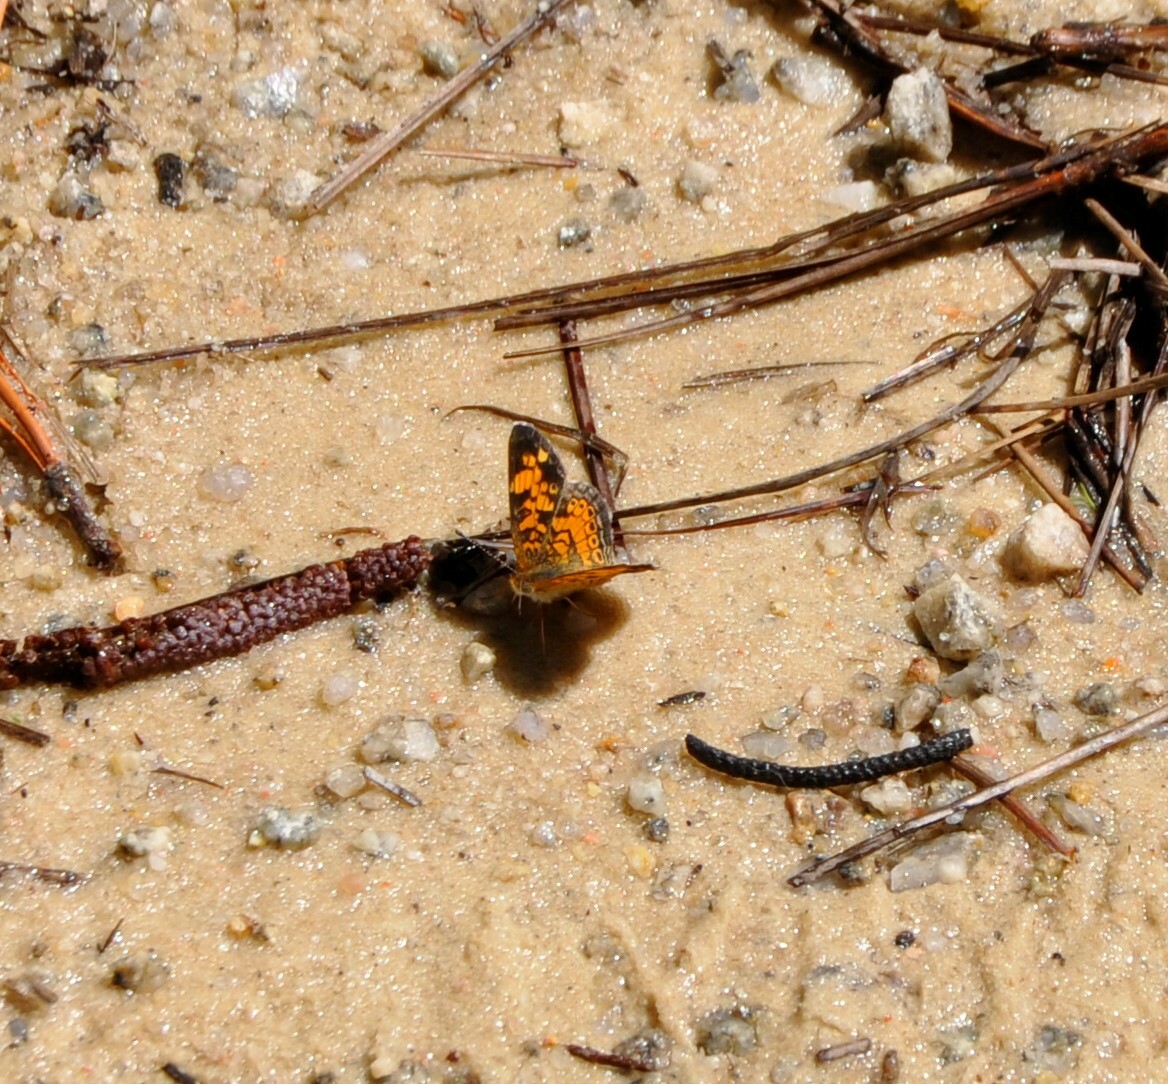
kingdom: Animalia
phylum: Arthropoda
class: Insecta
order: Lepidoptera
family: Nymphalidae
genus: Phyciodes
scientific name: Phyciodes tharos
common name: Pearl crescent
